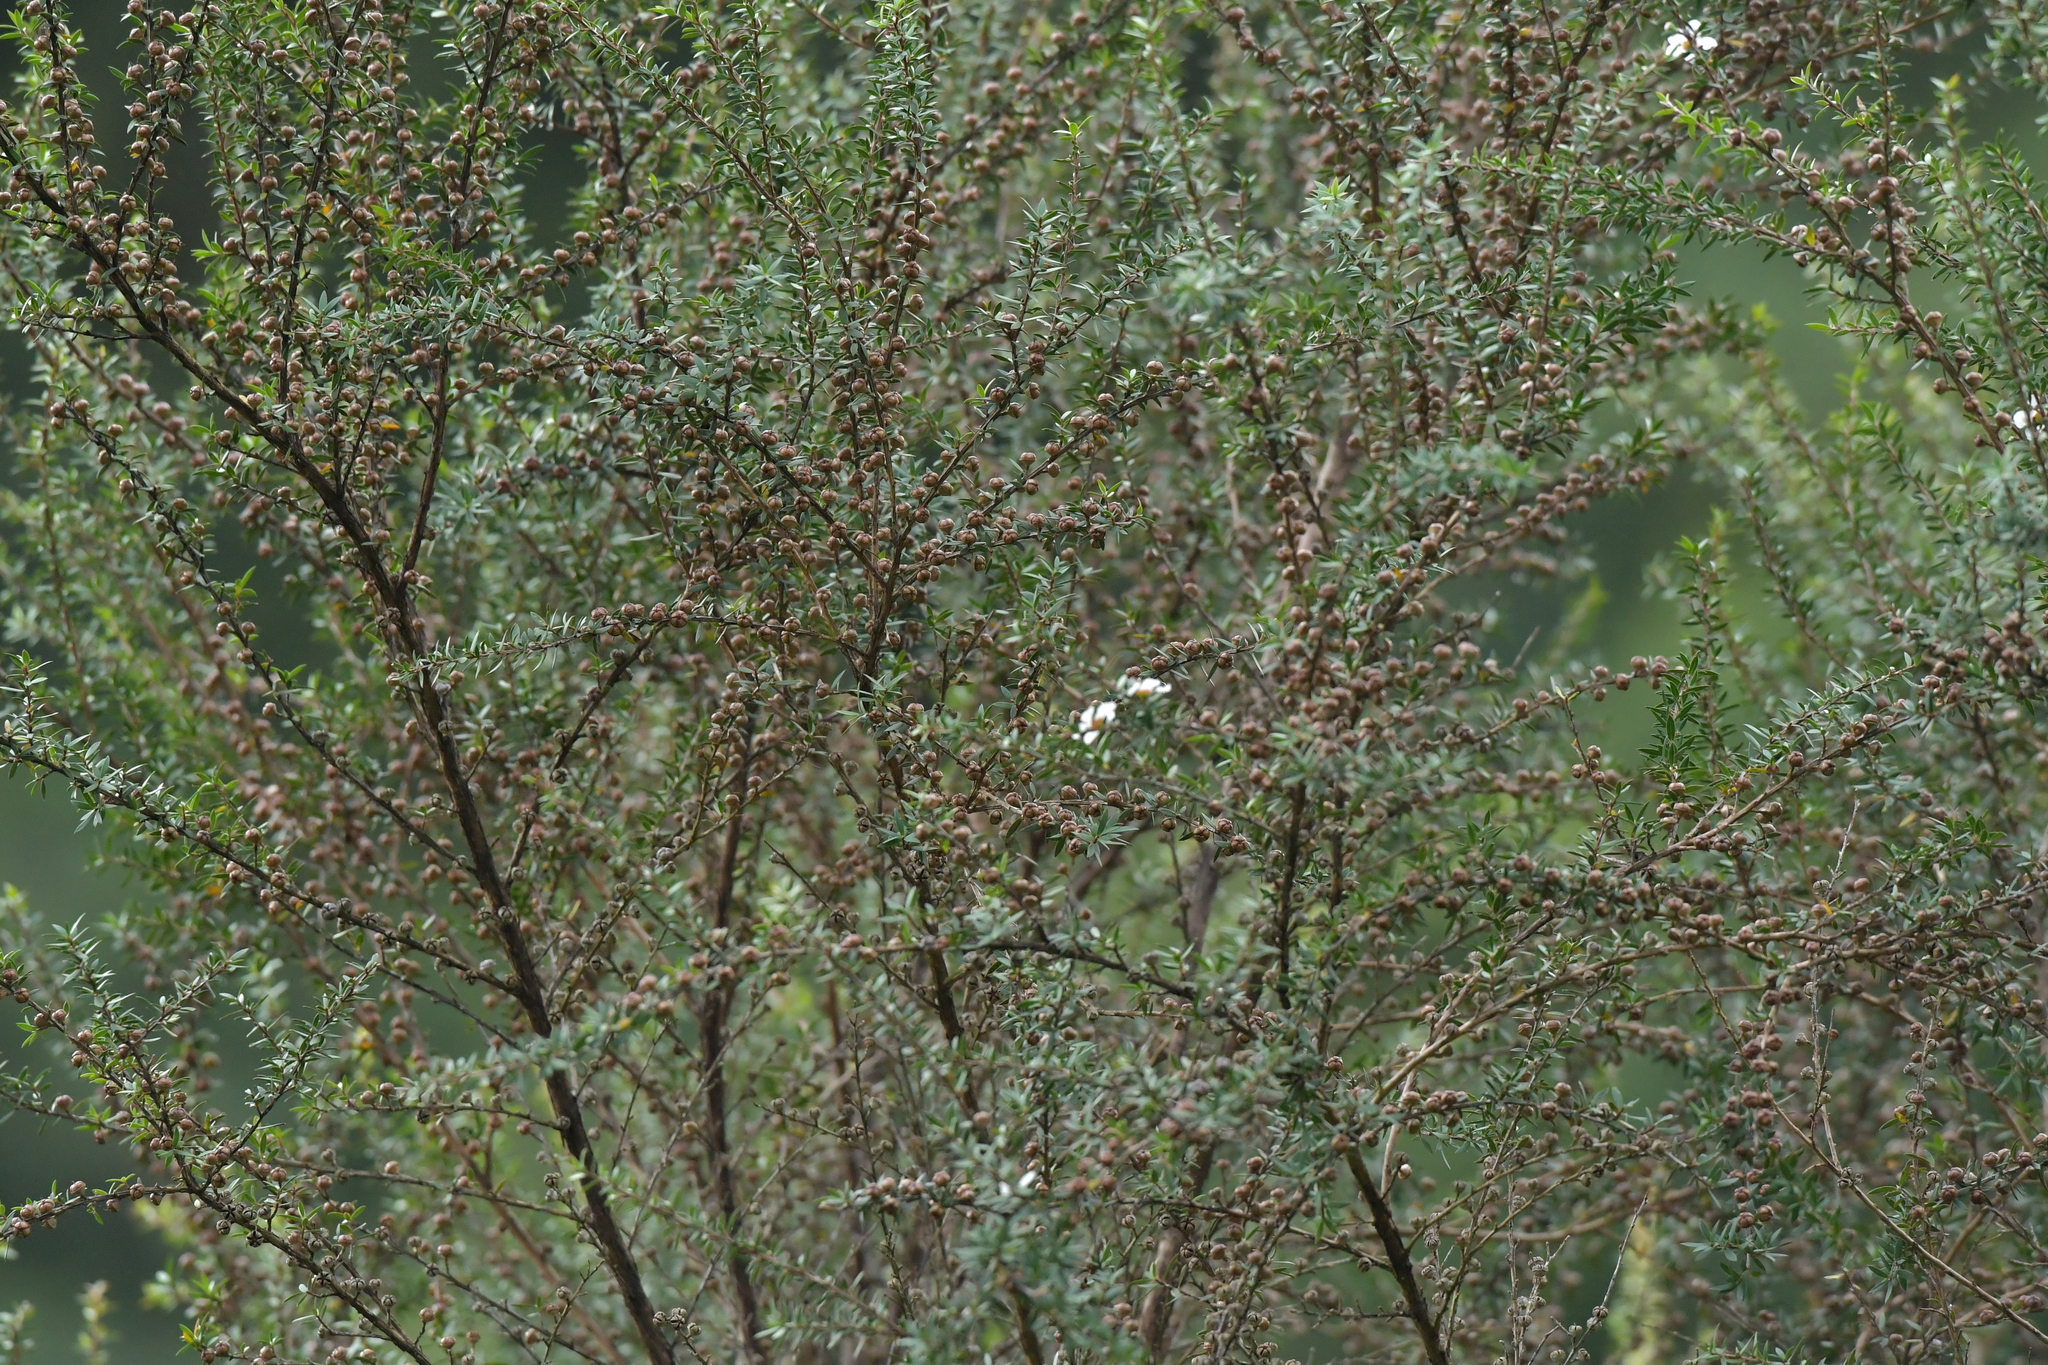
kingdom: Plantae
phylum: Tracheophyta
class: Magnoliopsida
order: Myrtales
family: Myrtaceae
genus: Leptospermum
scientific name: Leptospermum scoparium
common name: Broom tea-tree
